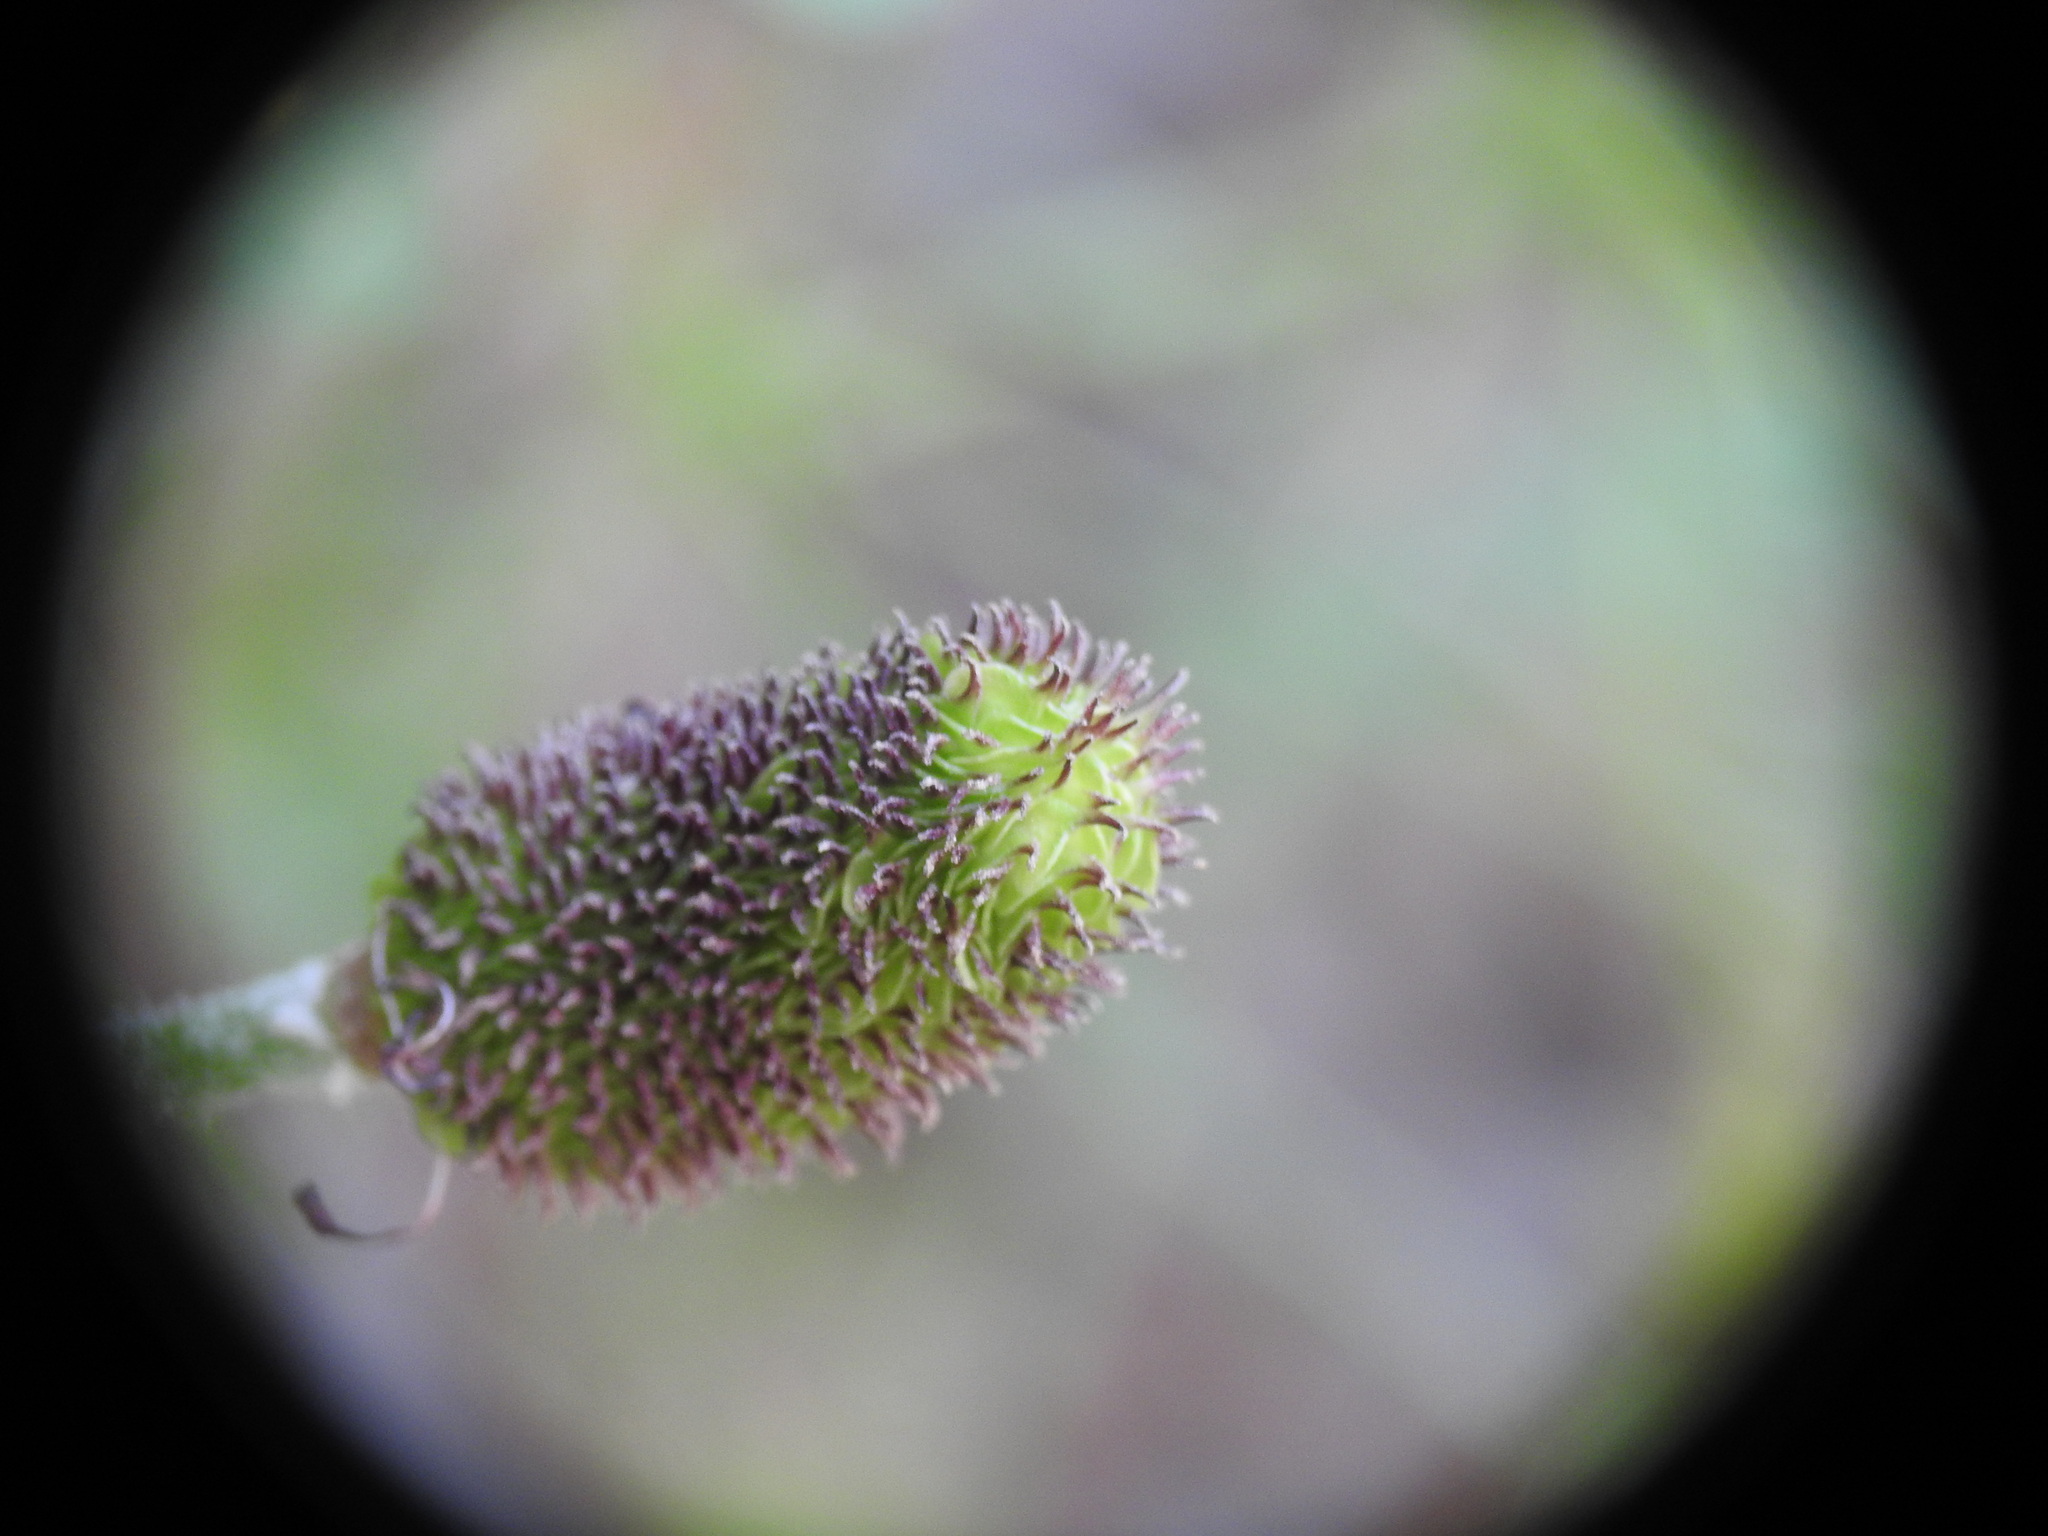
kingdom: Plantae
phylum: Tracheophyta
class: Magnoliopsida
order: Ranunculales
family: Ranunculaceae
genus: Ranunculus
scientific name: Ranunculus asiaticus
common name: Persian buttercup
